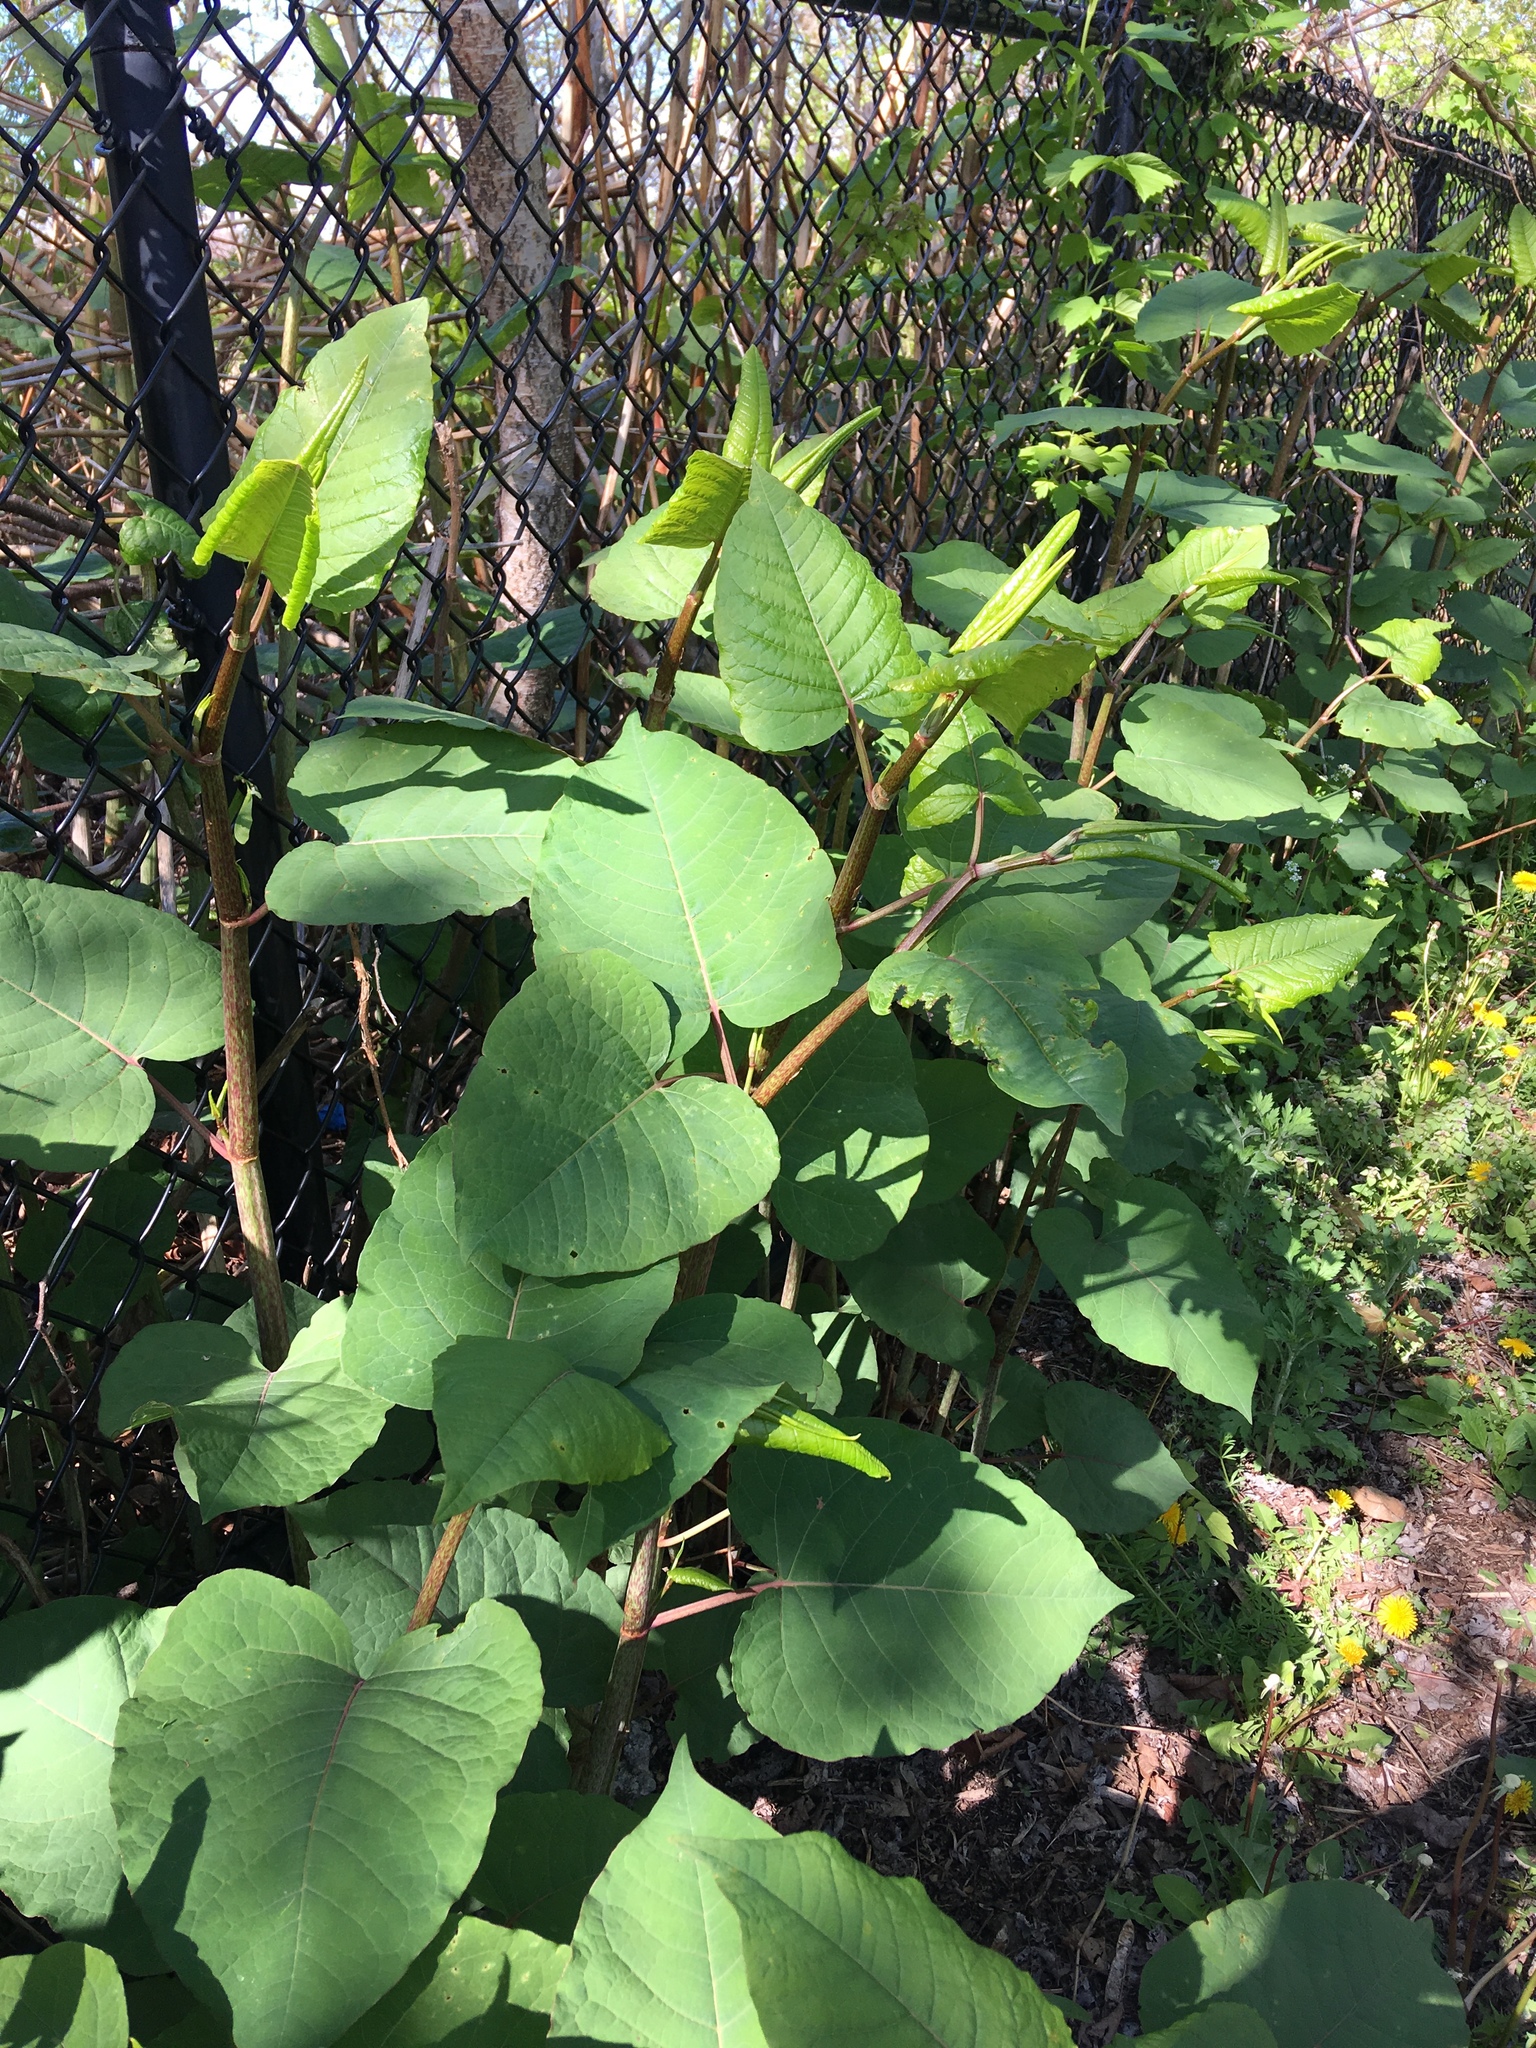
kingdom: Plantae
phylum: Tracheophyta
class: Magnoliopsida
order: Caryophyllales
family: Polygonaceae
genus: Reynoutria
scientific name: Reynoutria sachalinensis
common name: Giant knotweed
